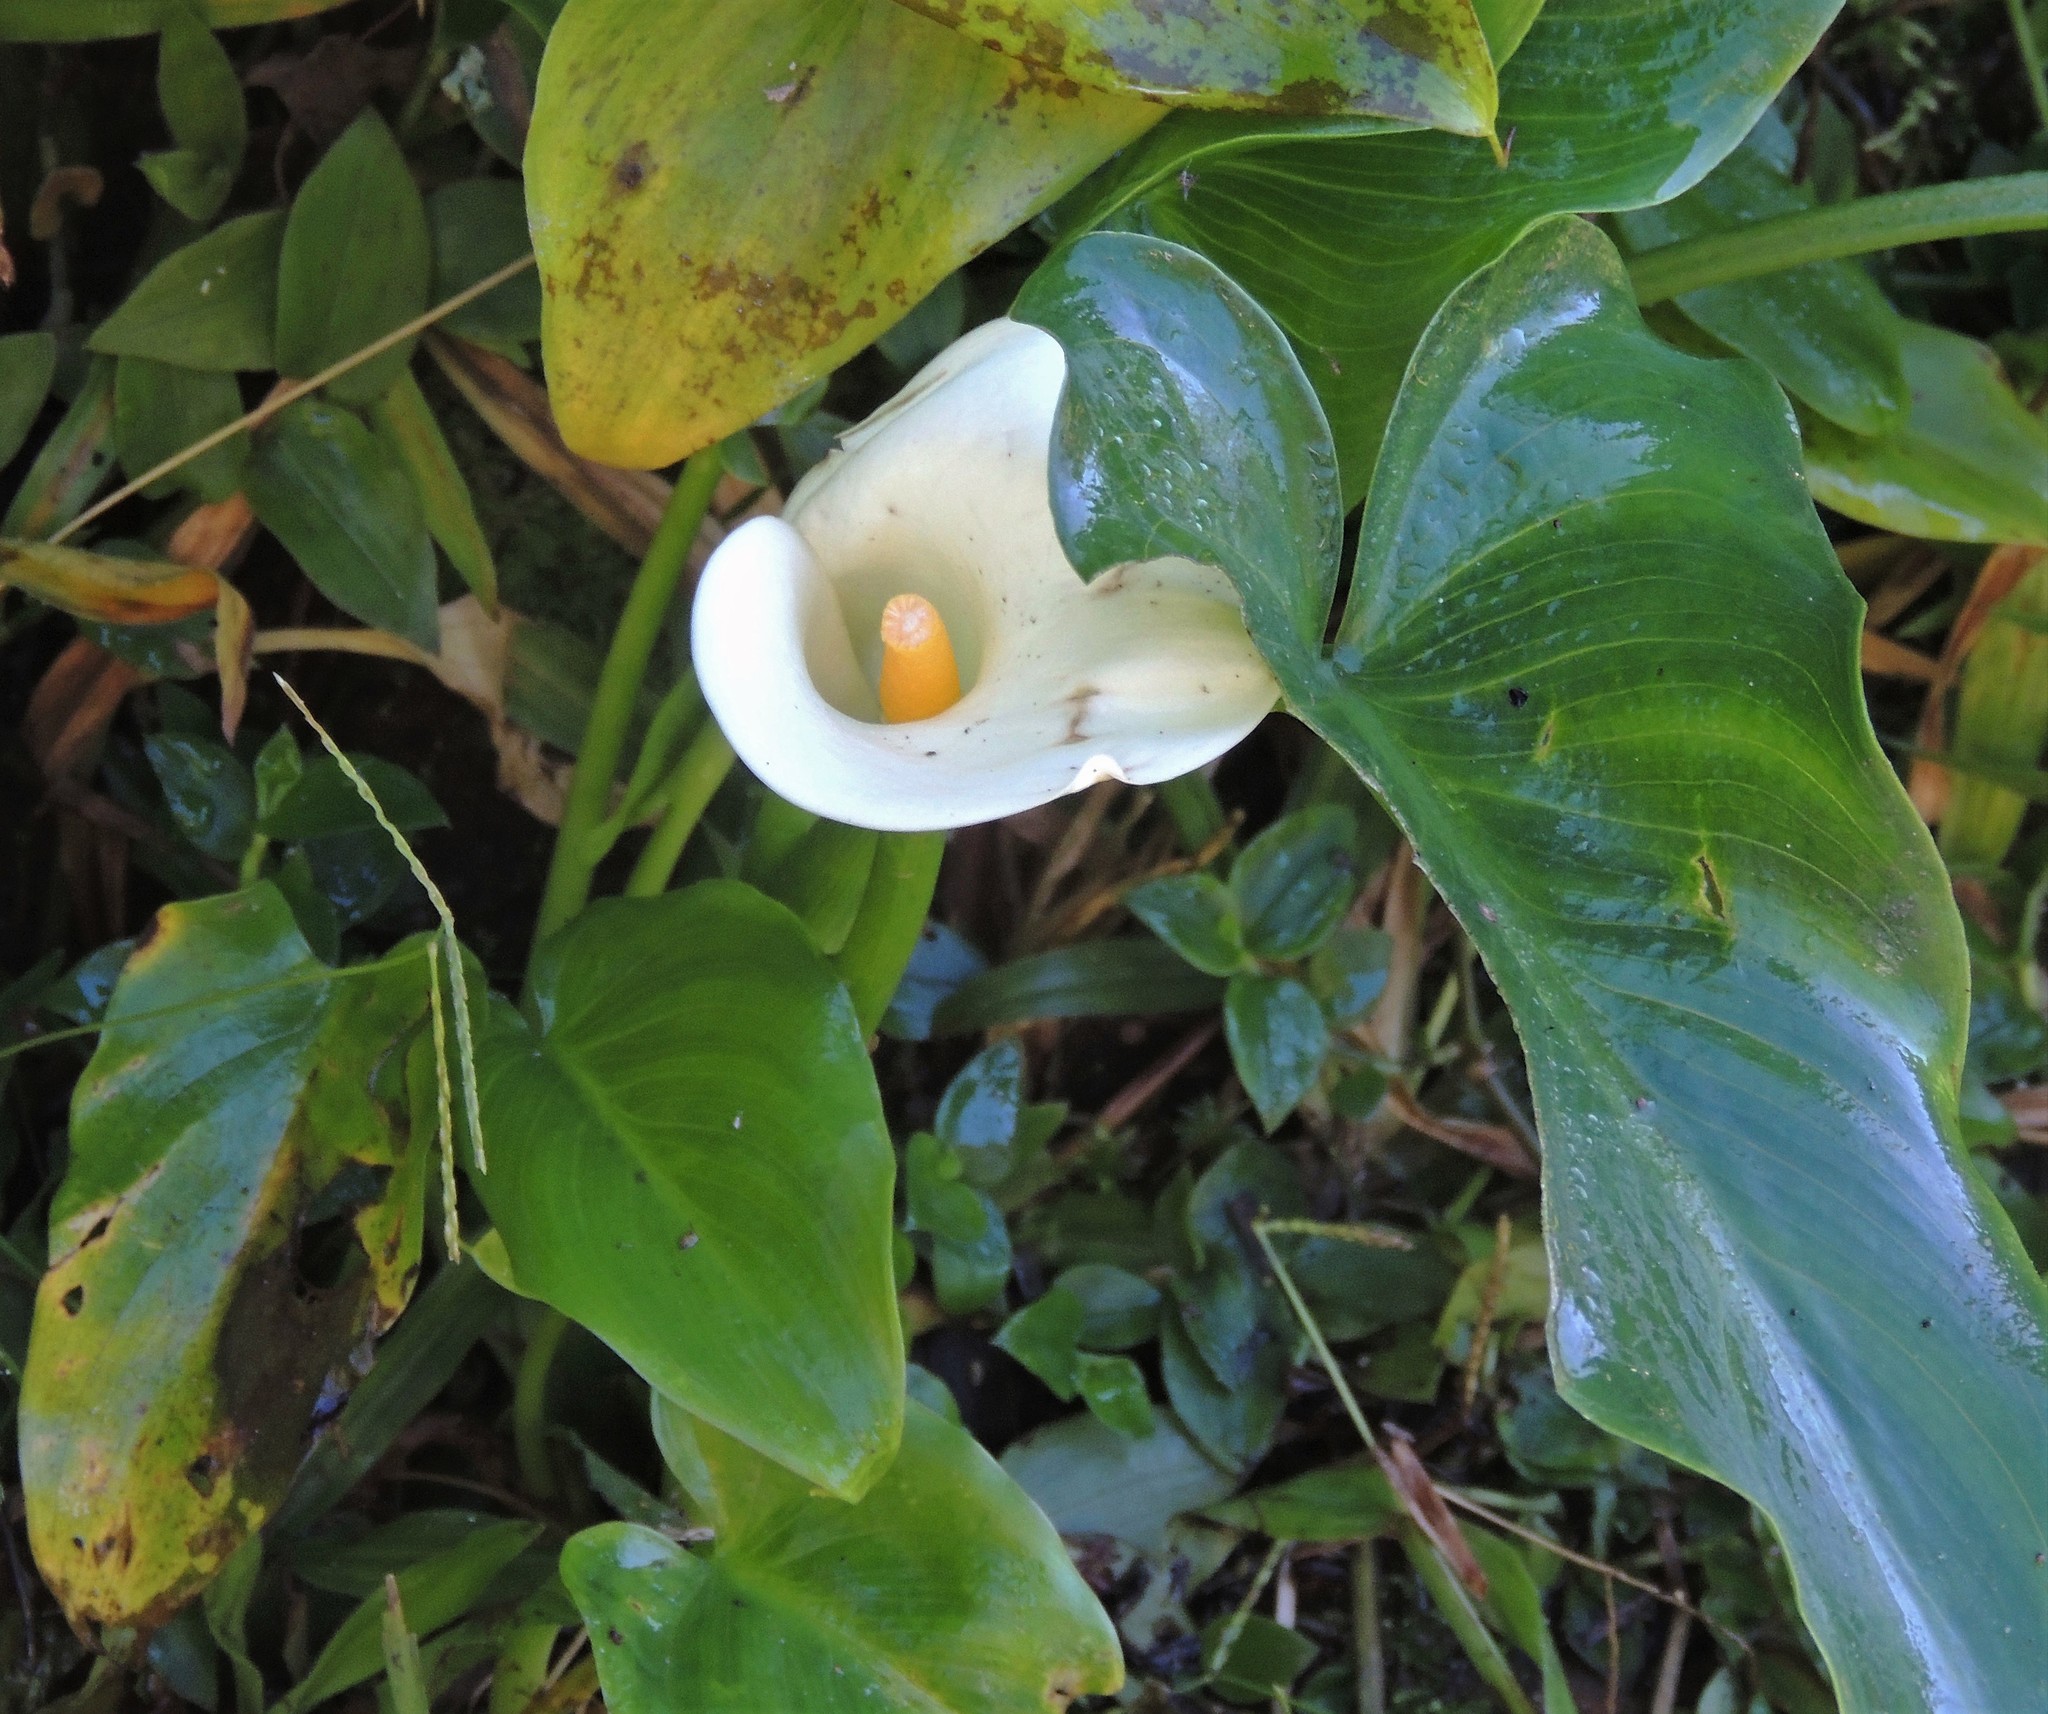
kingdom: Plantae
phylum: Tracheophyta
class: Liliopsida
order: Alismatales
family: Araceae
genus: Zantedeschia
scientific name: Zantedeschia aethiopica
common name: Altar-lily
